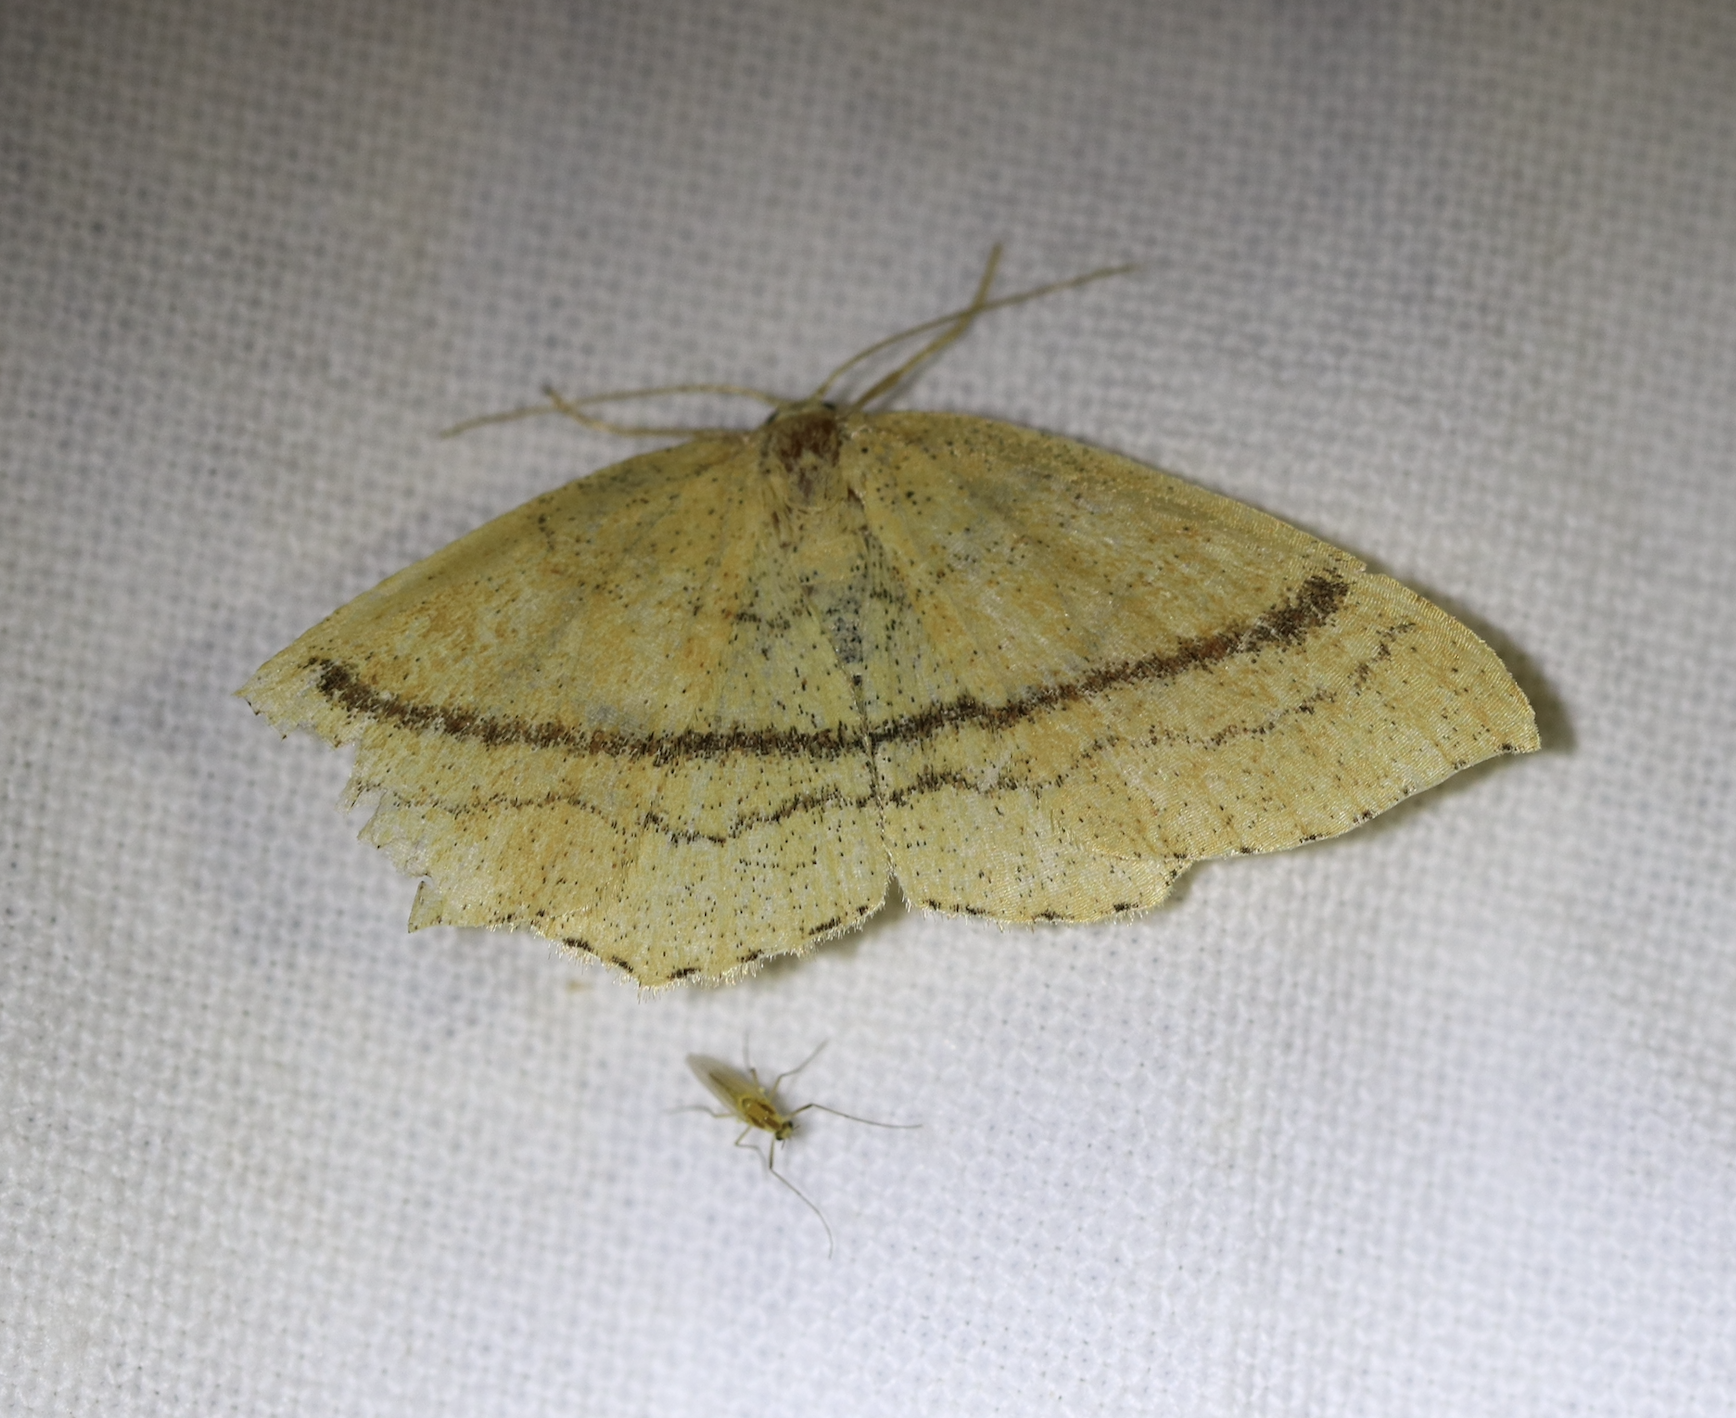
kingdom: Animalia
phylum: Arthropoda
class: Insecta
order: Lepidoptera
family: Geometridae
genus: Cyclophora
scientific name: Cyclophora linearia
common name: Clay triple-lines
